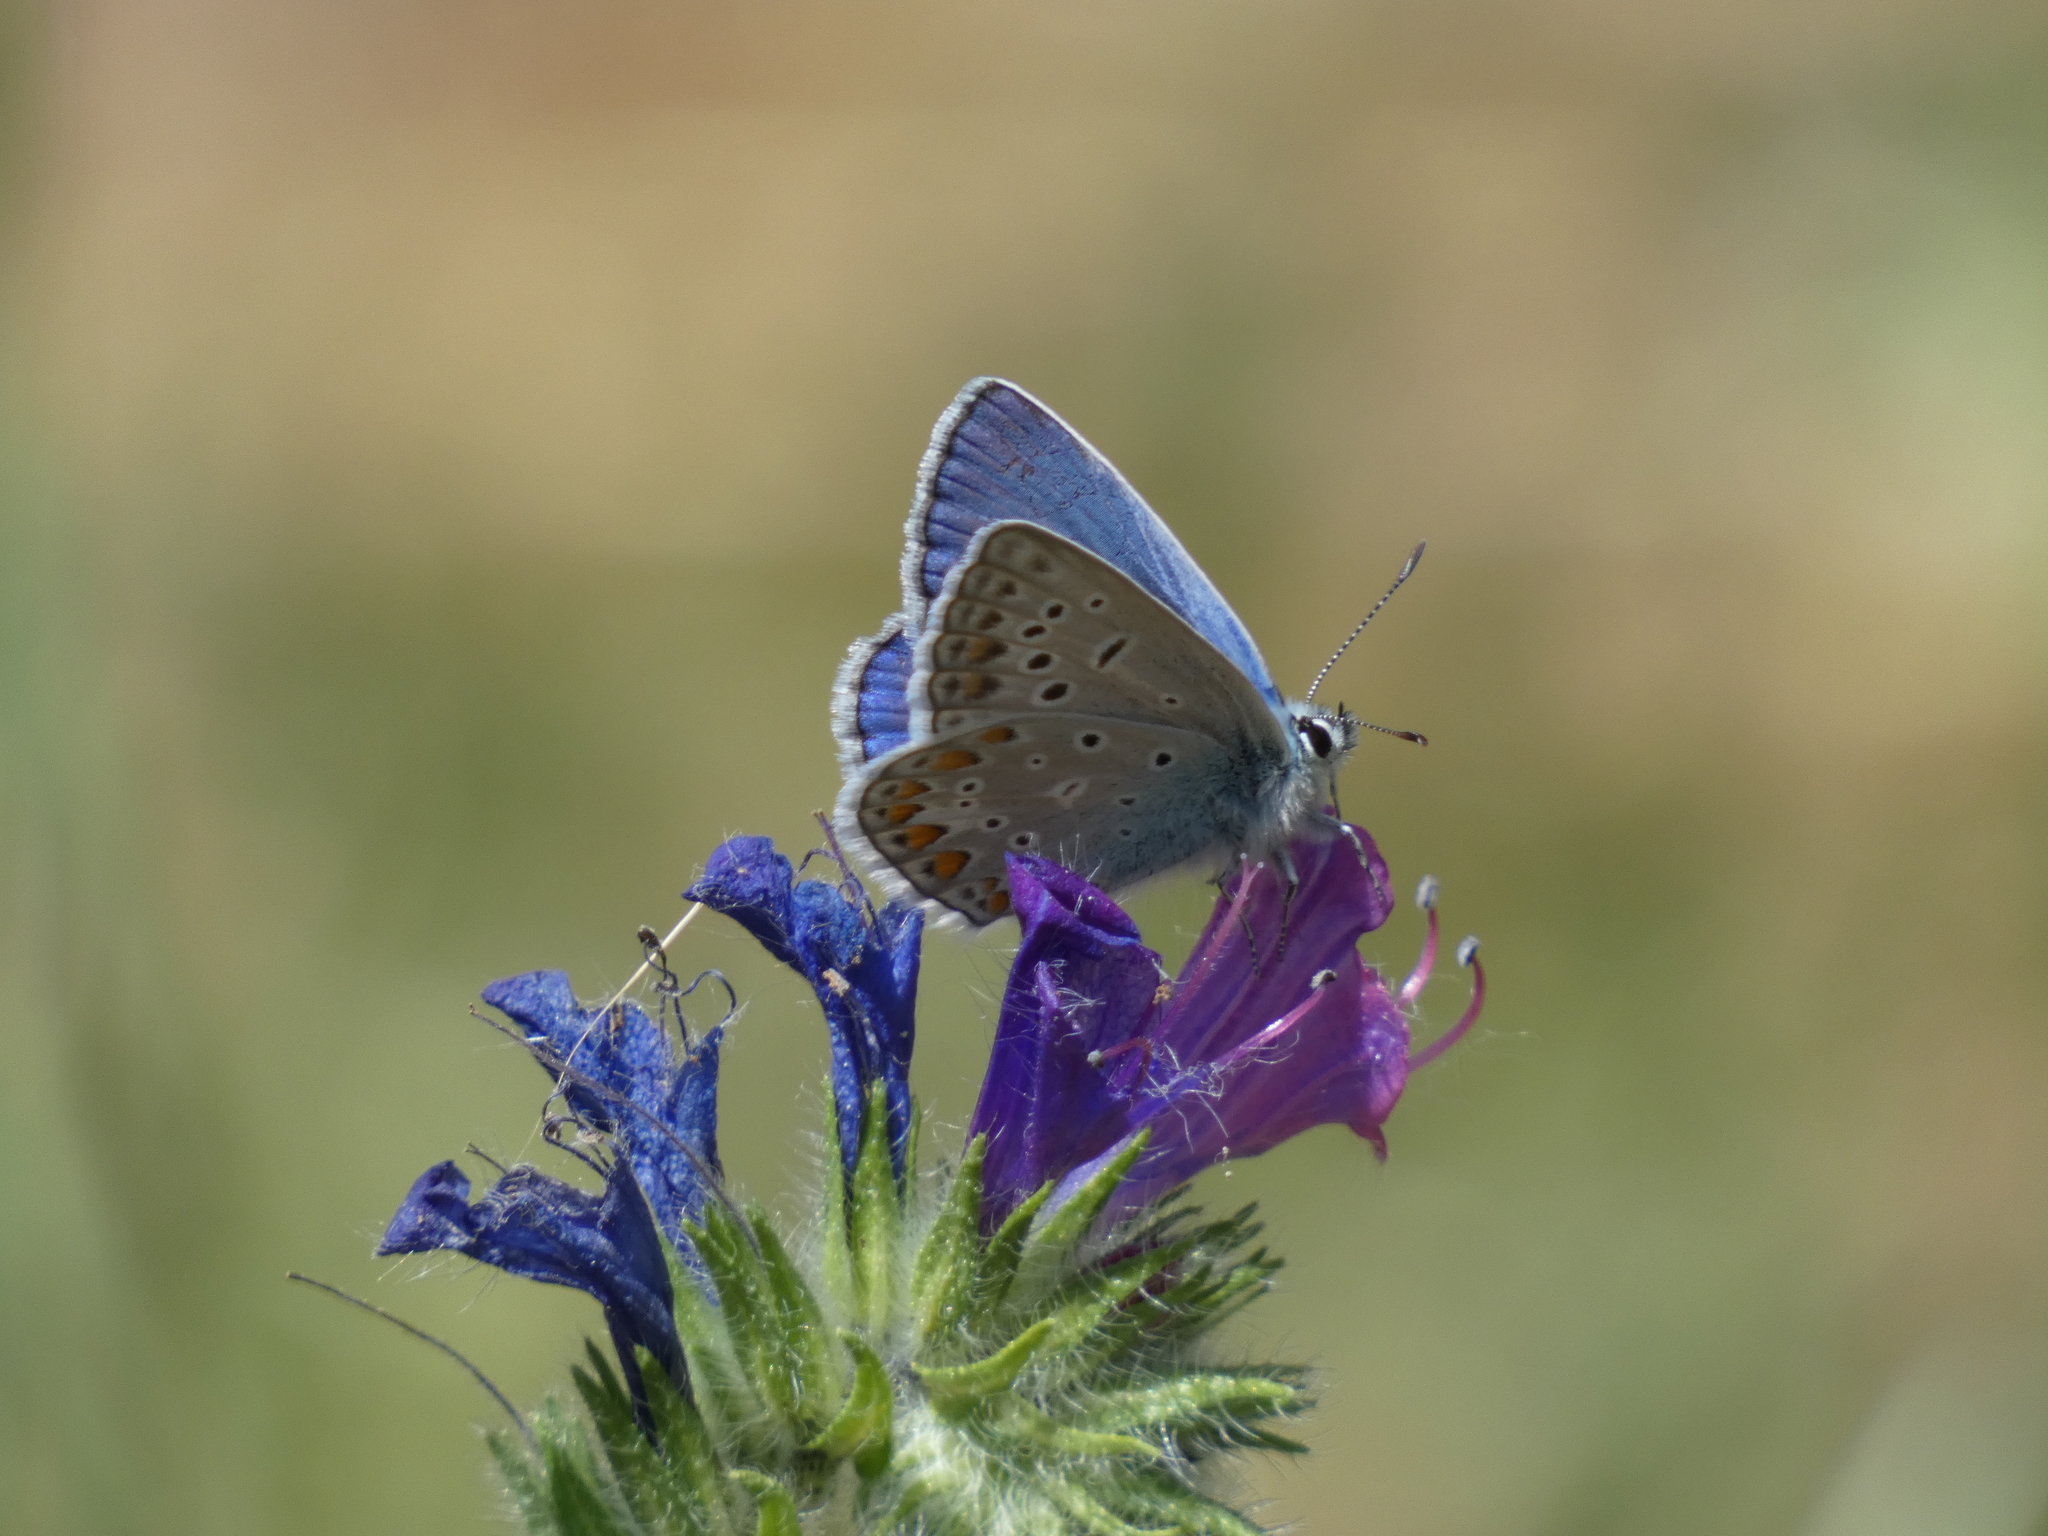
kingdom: Animalia
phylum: Arthropoda
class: Insecta
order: Lepidoptera
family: Lycaenidae
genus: Polyommatus
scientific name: Polyommatus icarus
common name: Common blue
